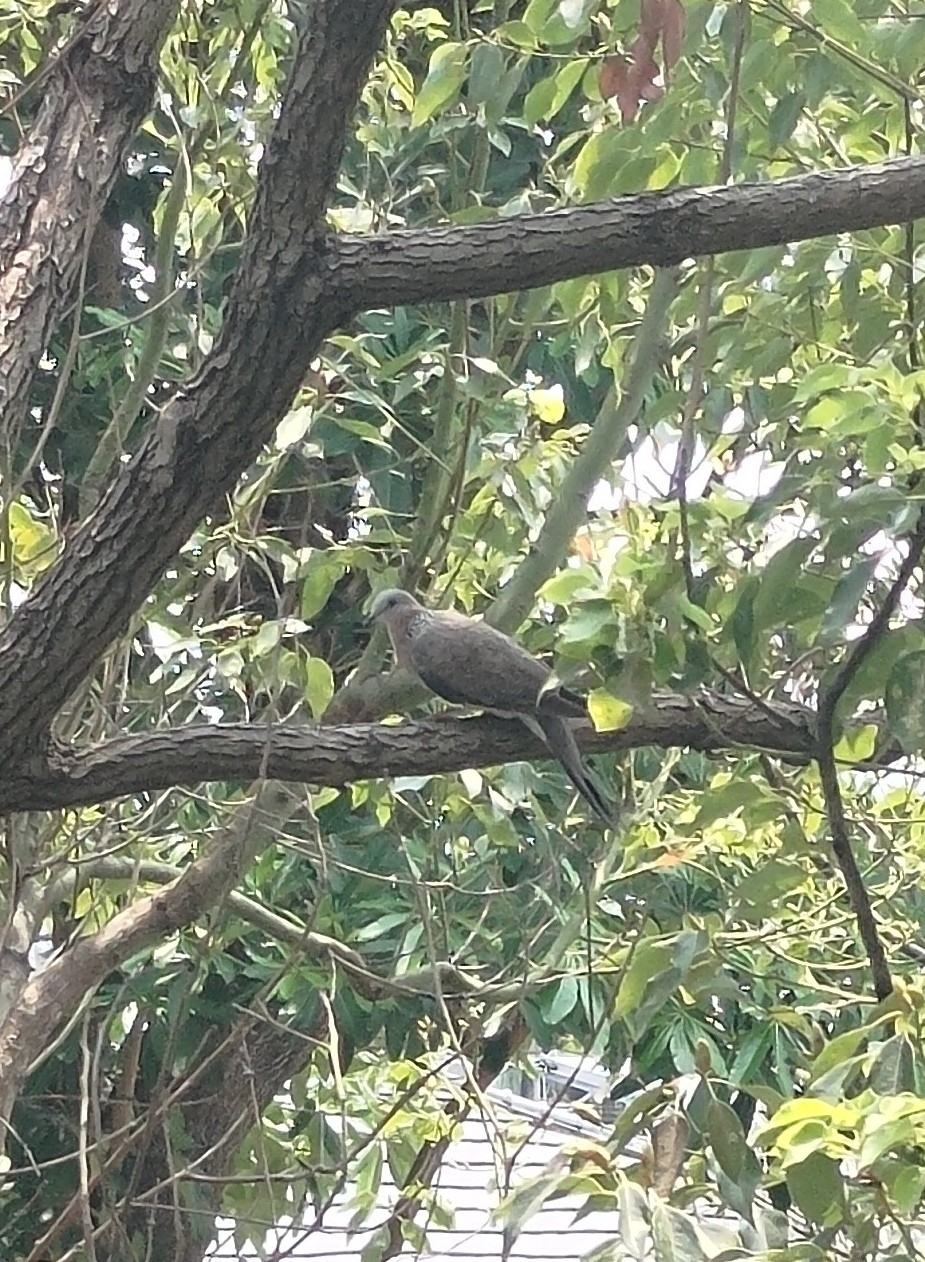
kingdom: Animalia
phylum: Chordata
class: Aves
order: Columbiformes
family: Columbidae
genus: Spilopelia
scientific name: Spilopelia chinensis
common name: Spotted dove
